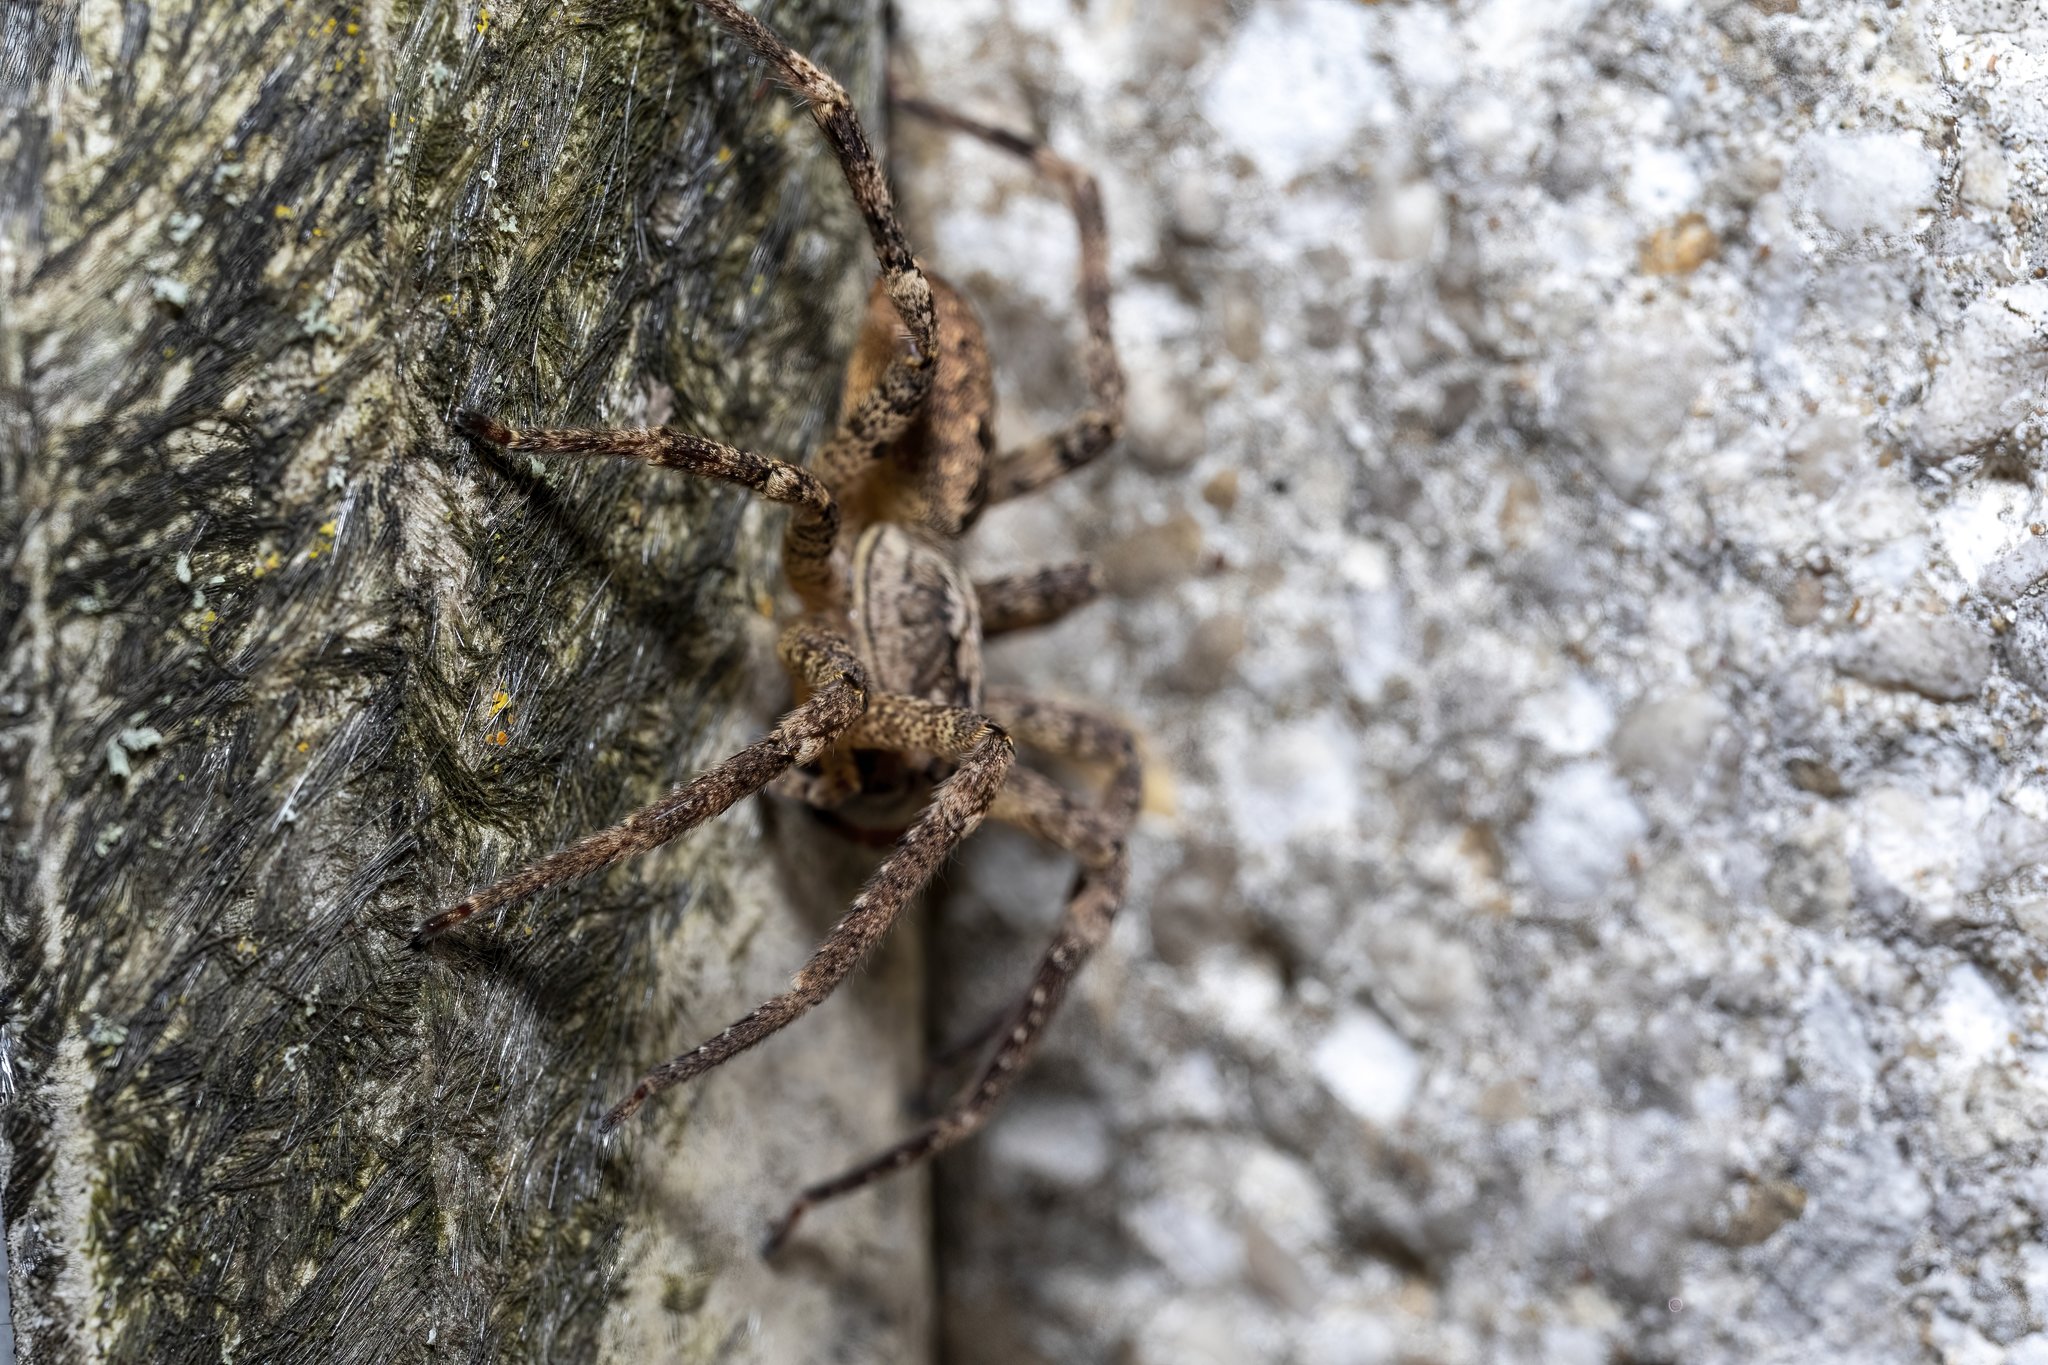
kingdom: Animalia
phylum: Arthropoda
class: Arachnida
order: Araneae
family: Zoropsidae
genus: Zoropsis
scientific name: Zoropsis spinimana
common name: Zoropsid spider
